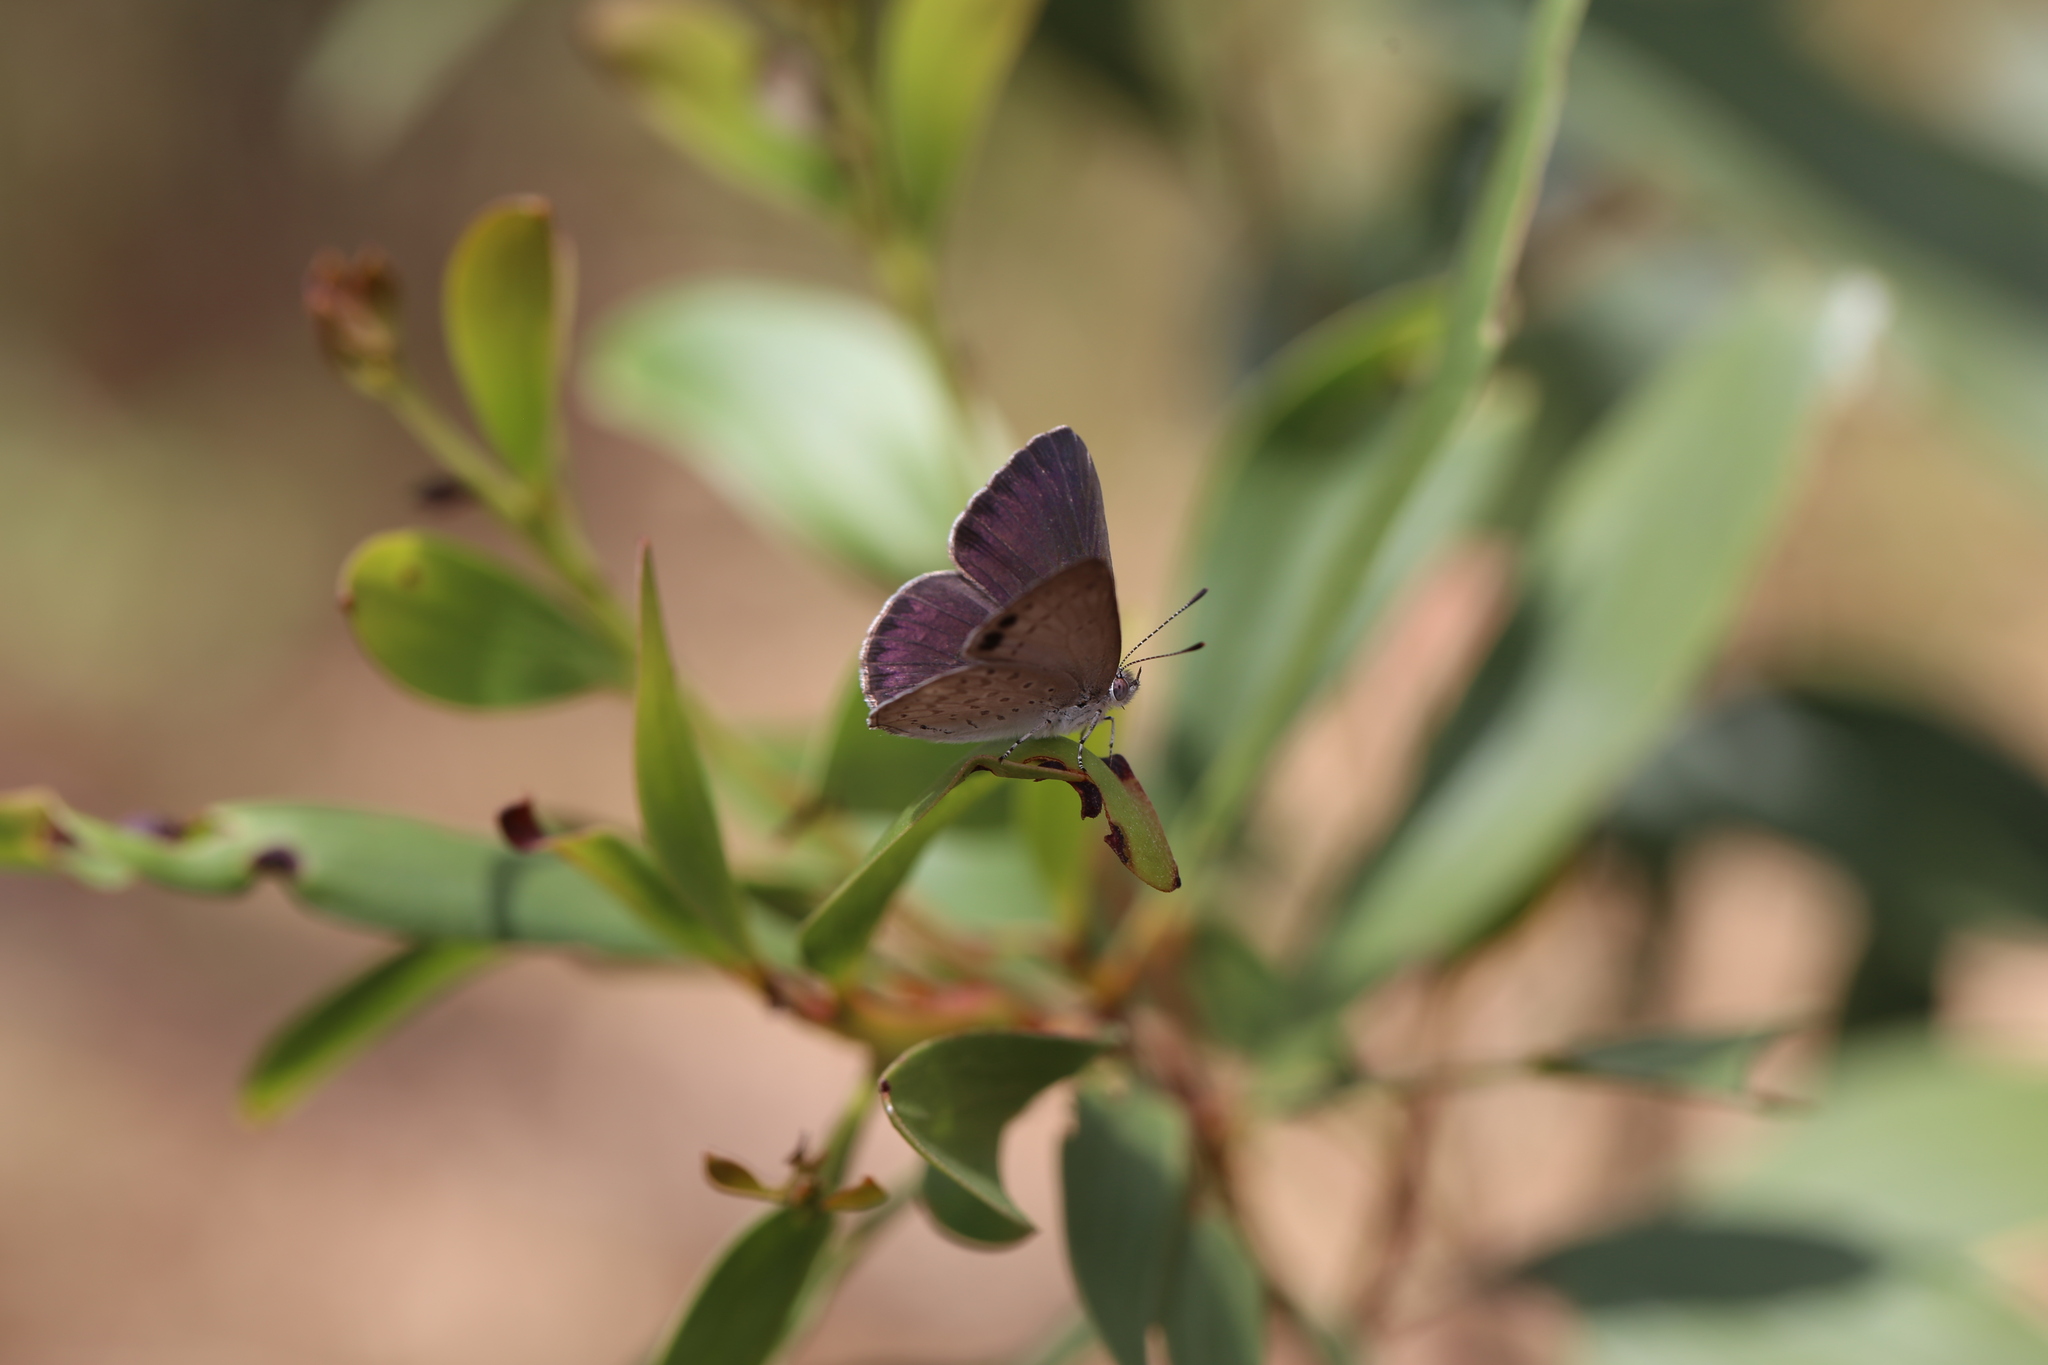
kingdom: Animalia
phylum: Arthropoda
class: Insecta
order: Lepidoptera
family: Lycaenidae
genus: Candalides
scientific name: Candalides
